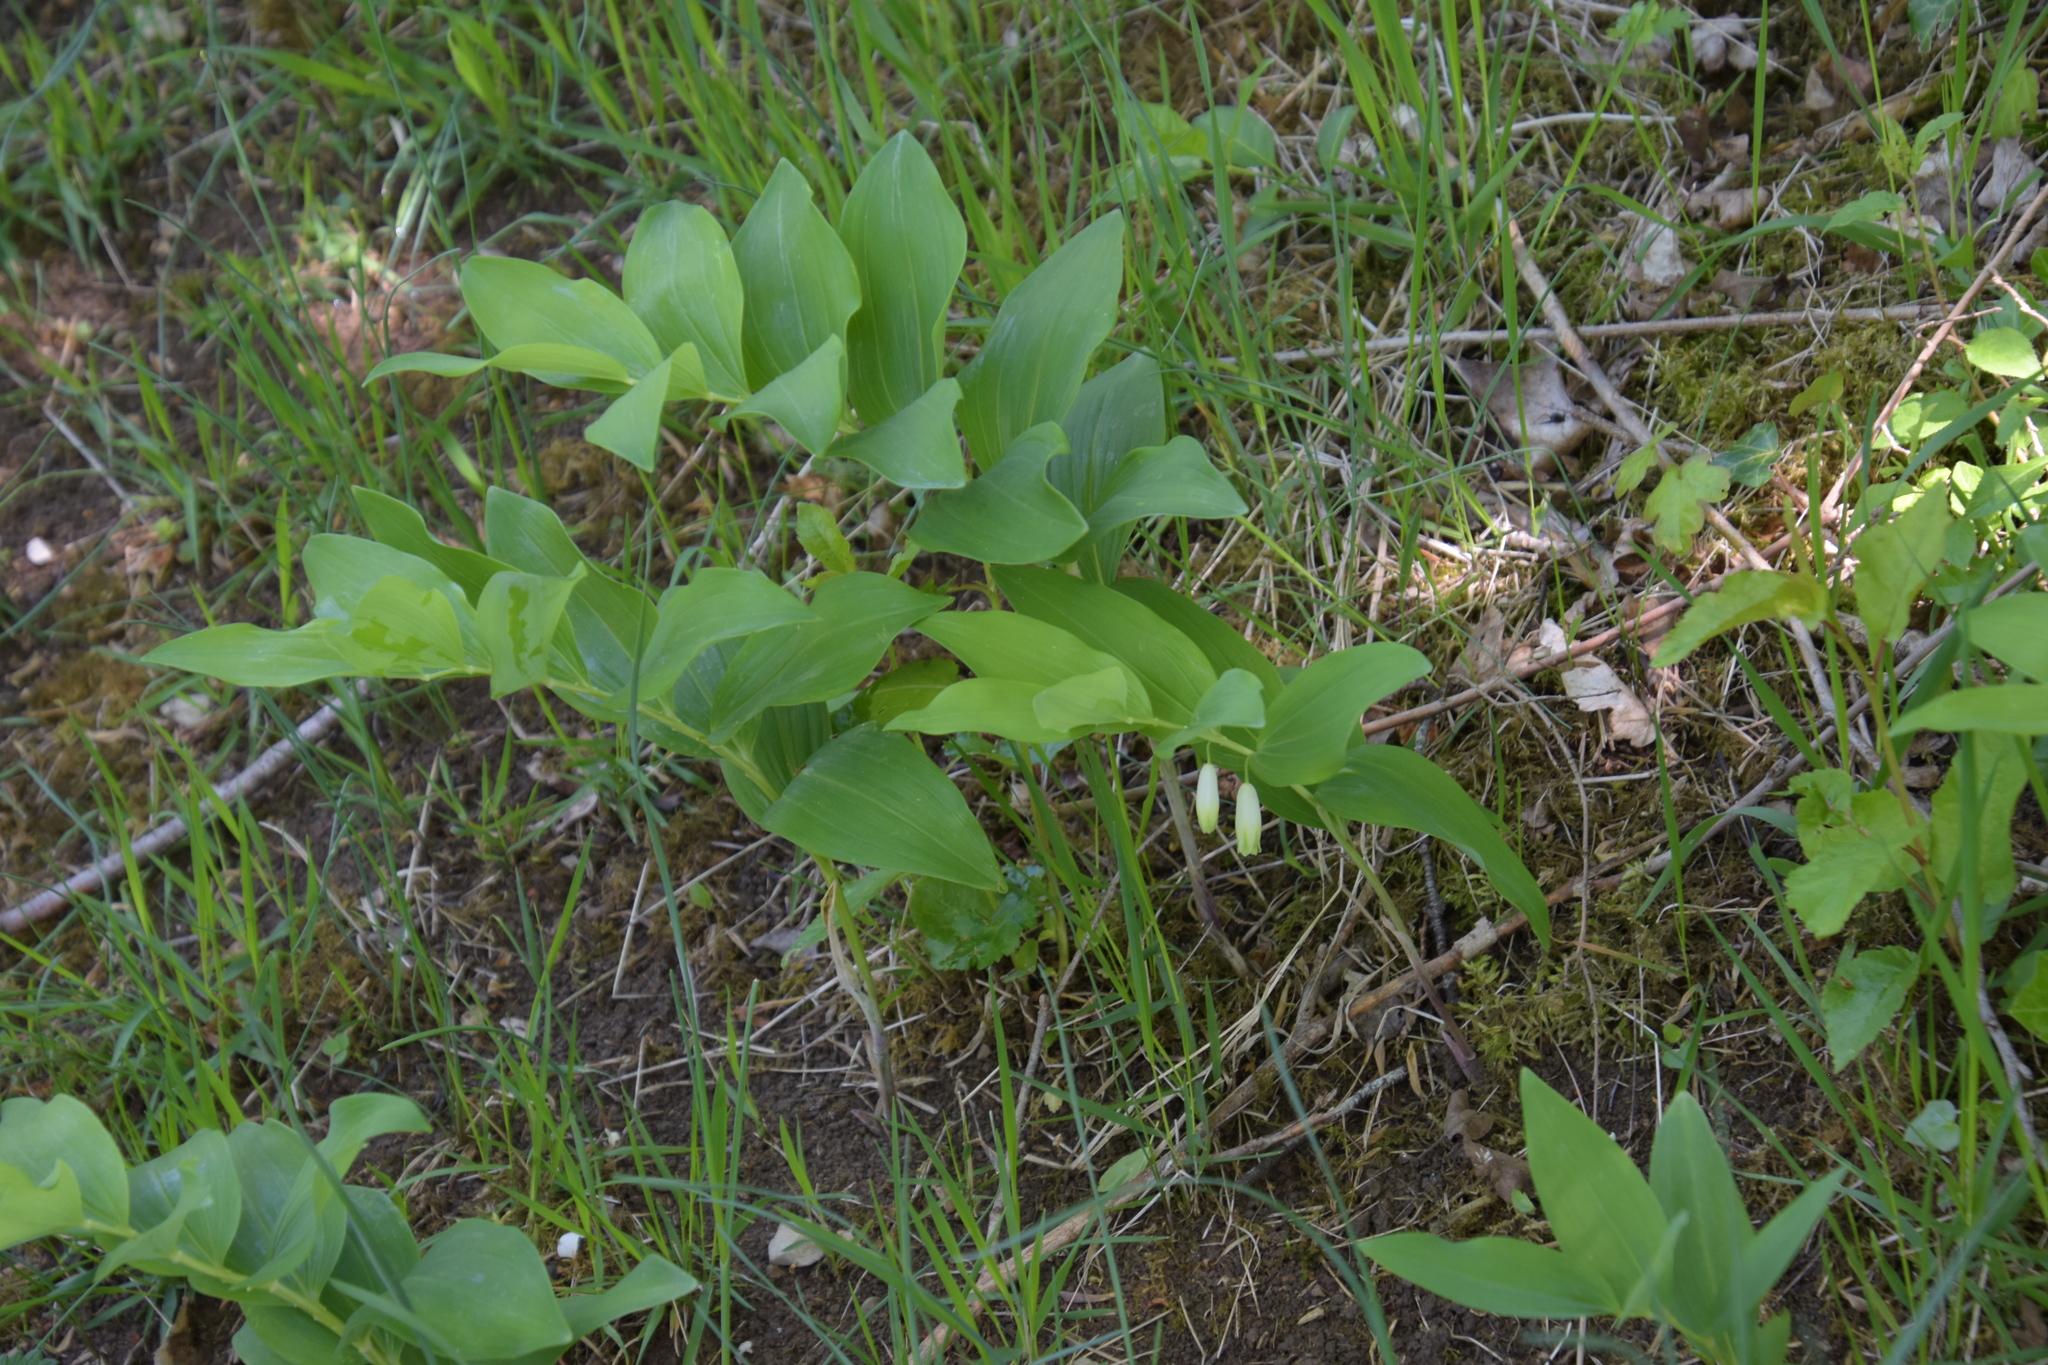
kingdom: Plantae
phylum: Tracheophyta
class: Liliopsida
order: Asparagales
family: Asparagaceae
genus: Polygonatum
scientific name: Polygonatum odoratum
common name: Angular solomon's-seal
